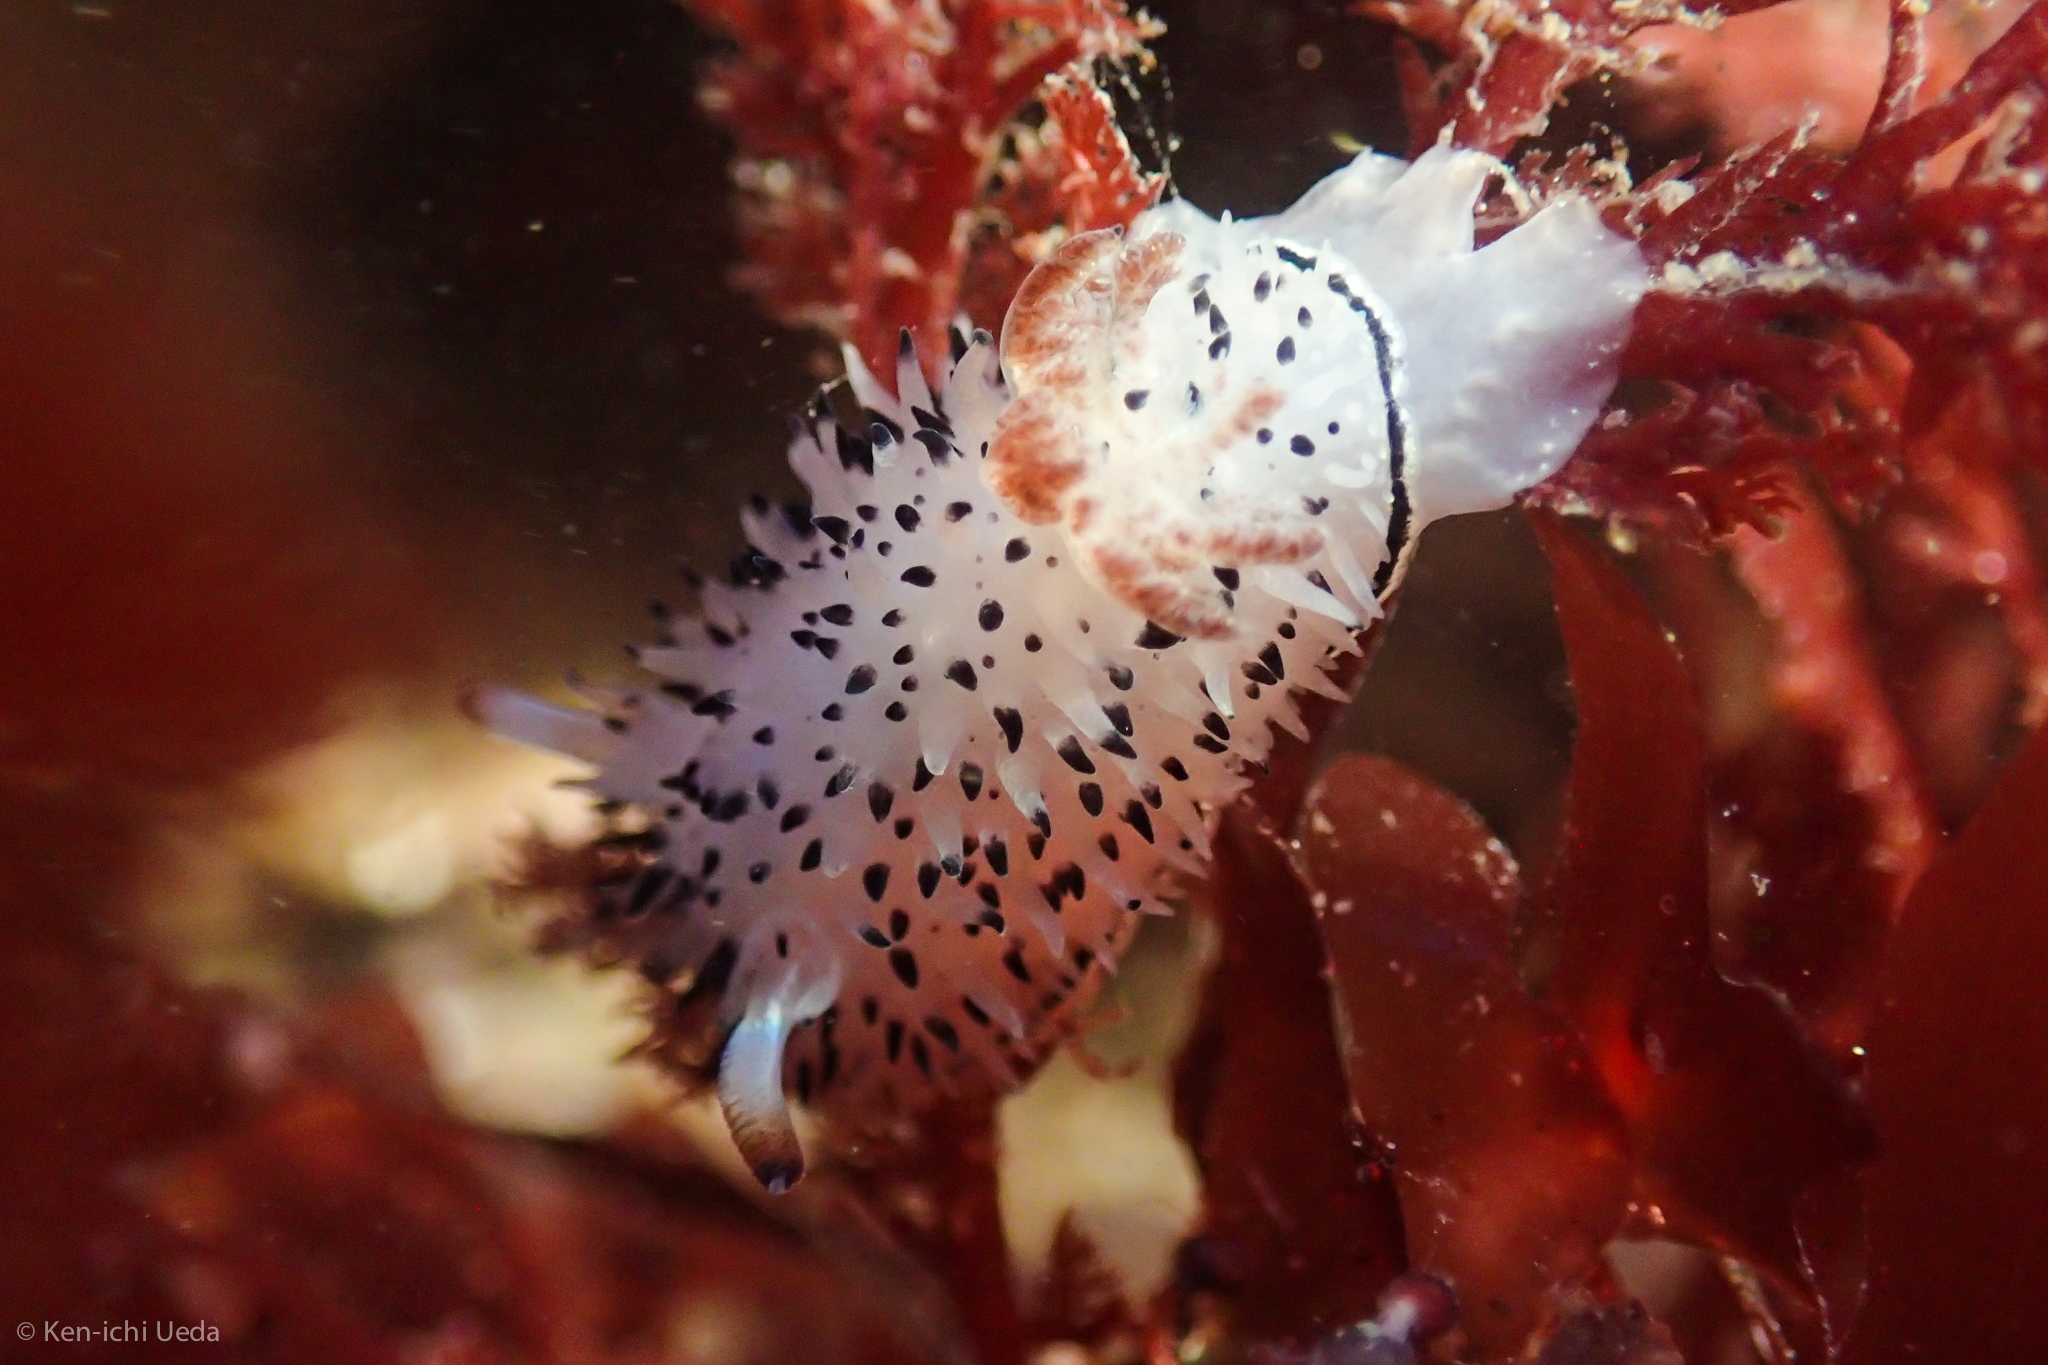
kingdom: Animalia
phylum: Mollusca
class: Gastropoda
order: Nudibranchia
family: Onchidorididae
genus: Acanthodoris
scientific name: Acanthodoris rhodoceras
